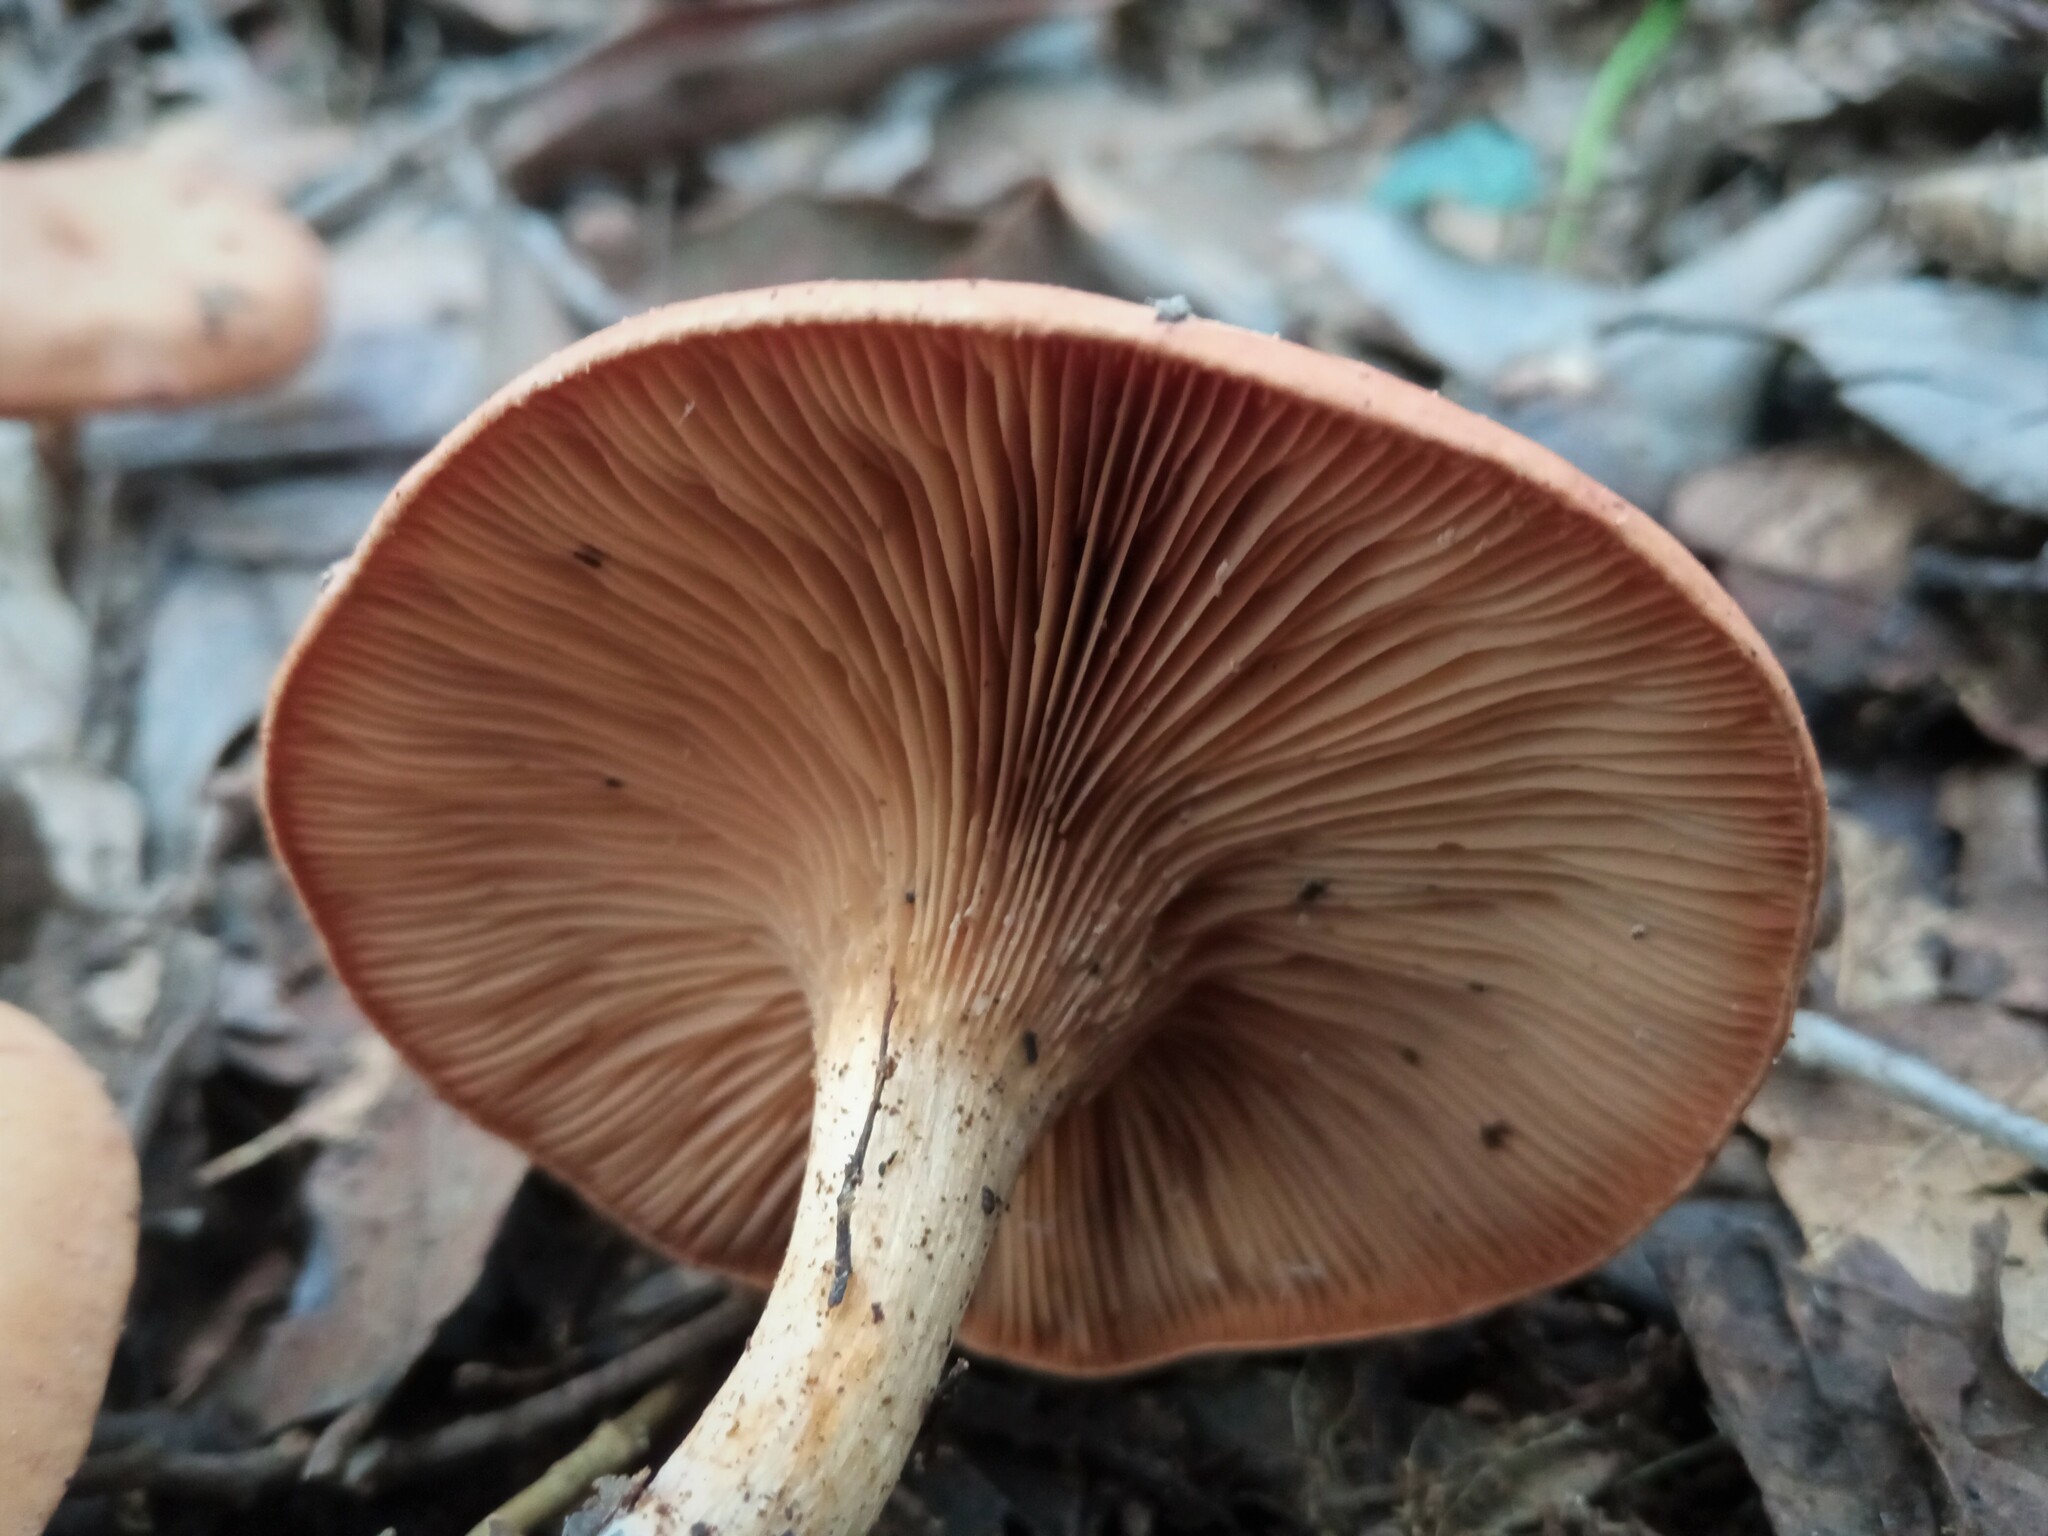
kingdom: Fungi
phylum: Basidiomycota
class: Agaricomycetes
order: Agaricales
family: Tricholomataceae
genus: Paralepista
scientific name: Paralepista flaccida
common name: Tawny funnel cap
